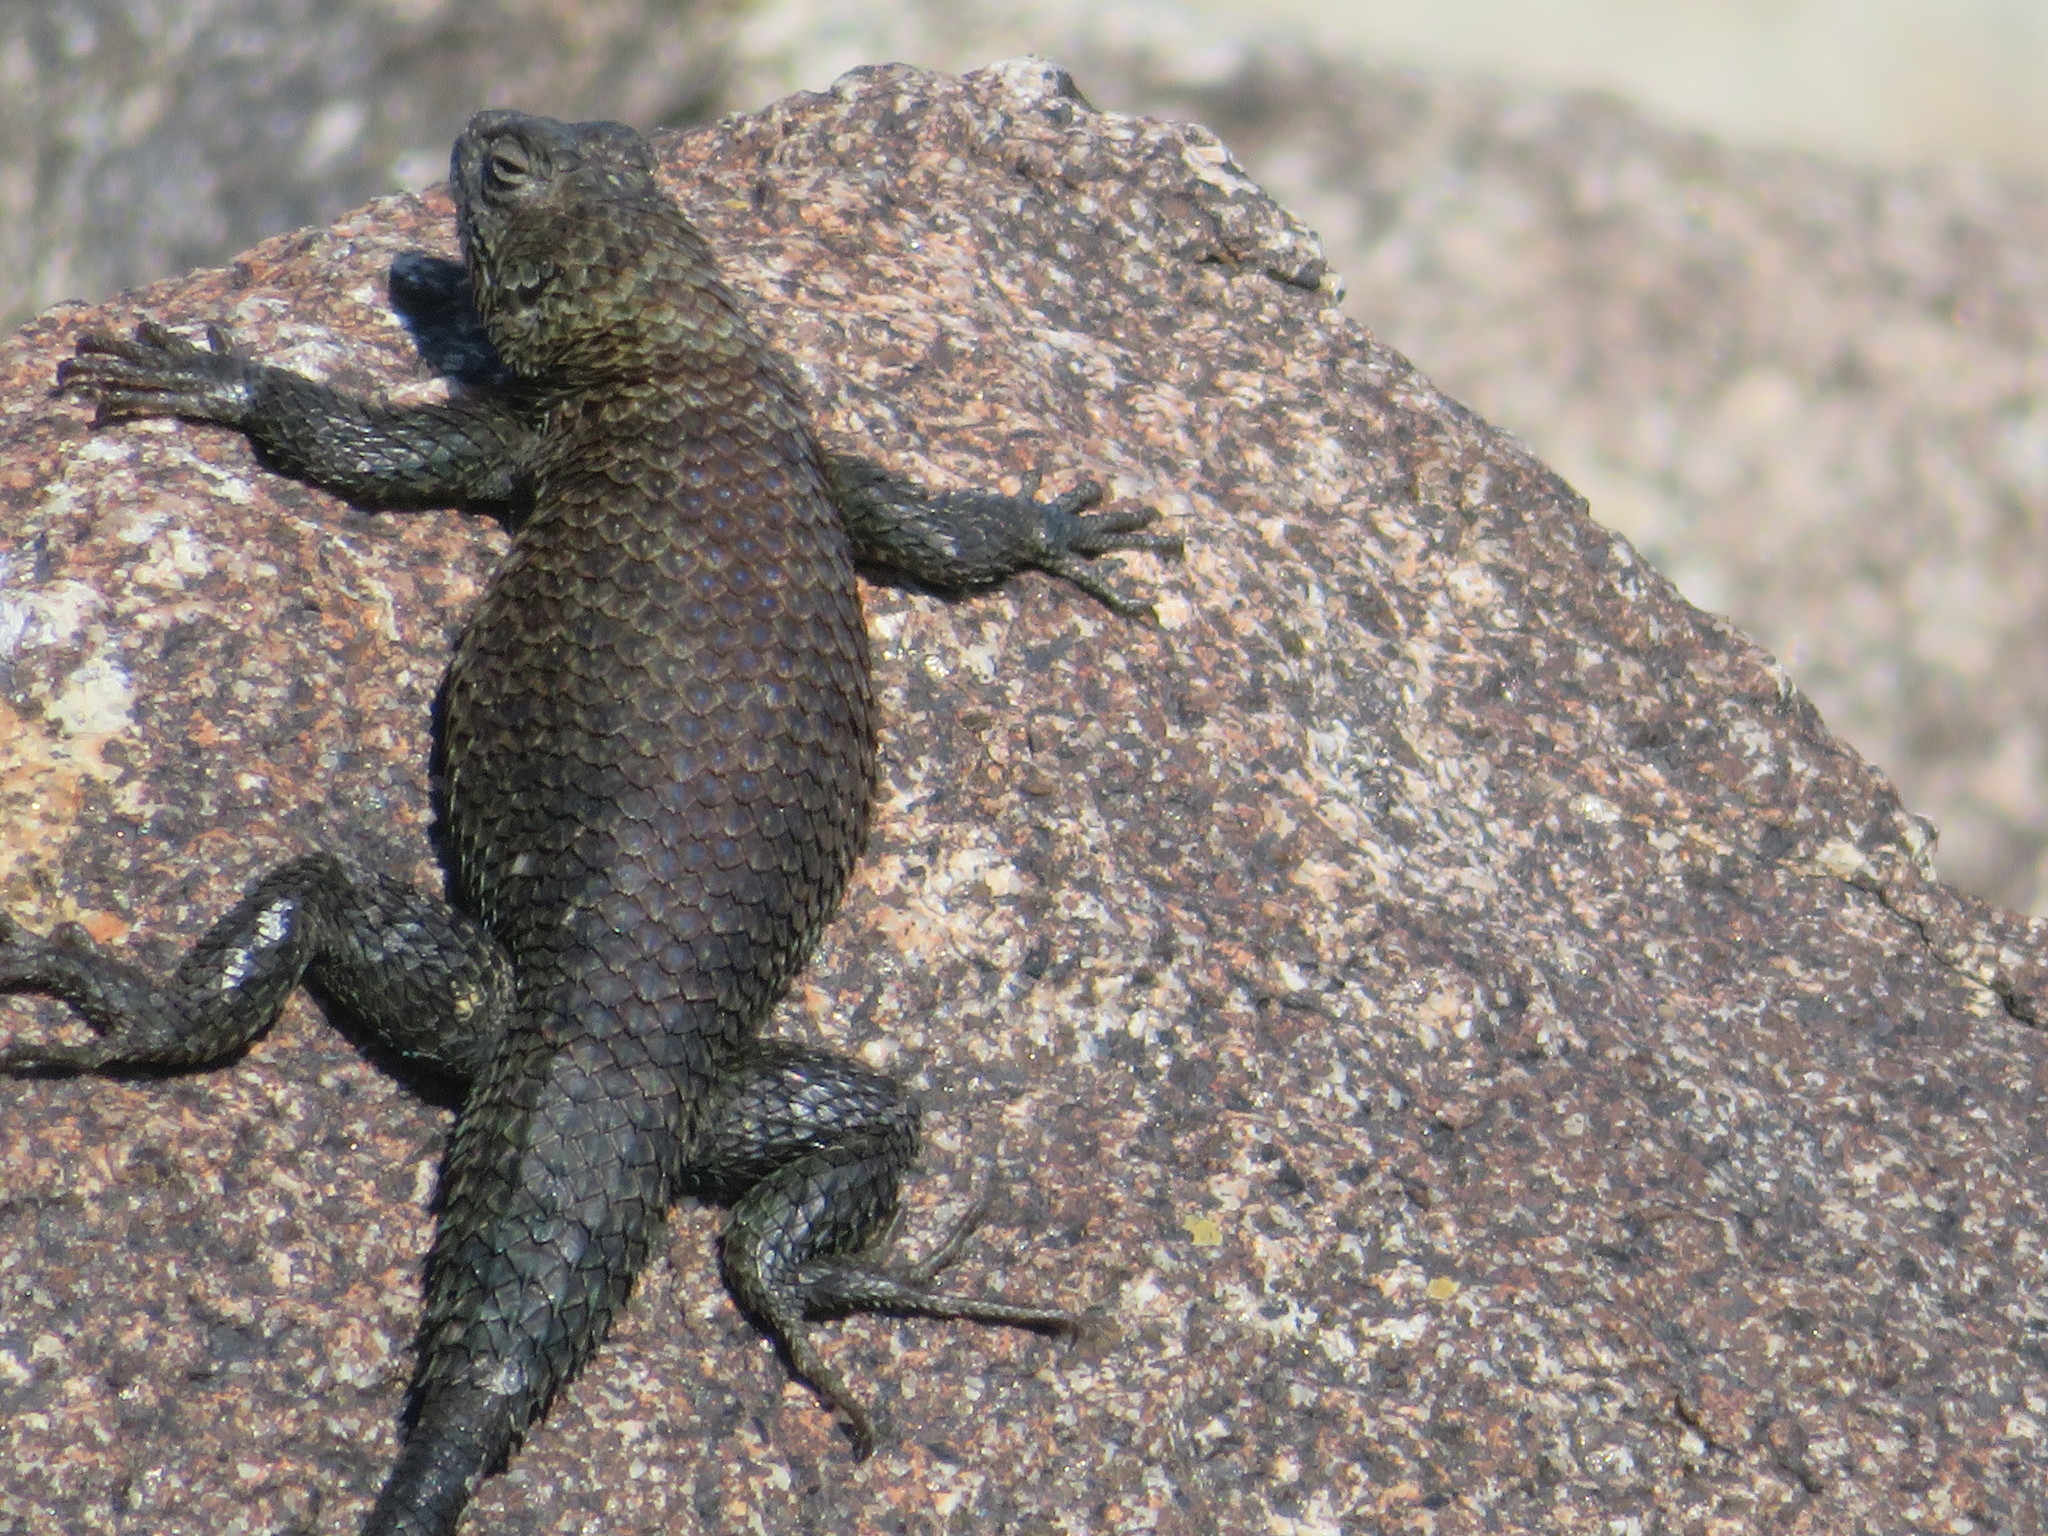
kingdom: Animalia
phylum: Chordata
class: Squamata
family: Phrynosomatidae
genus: Sceloporus
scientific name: Sceloporus orcutti
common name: Granite spiny lizard
